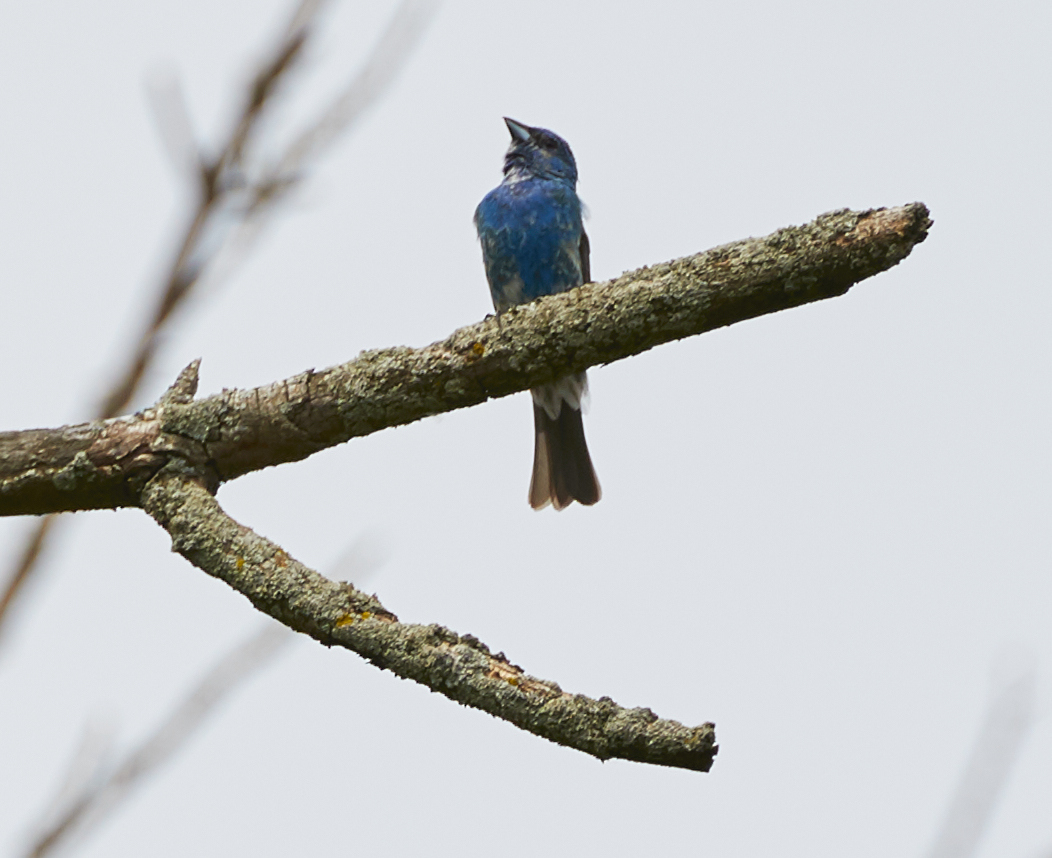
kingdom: Animalia
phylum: Chordata
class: Aves
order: Passeriformes
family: Cardinalidae
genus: Passerina
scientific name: Passerina cyanea
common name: Indigo bunting
